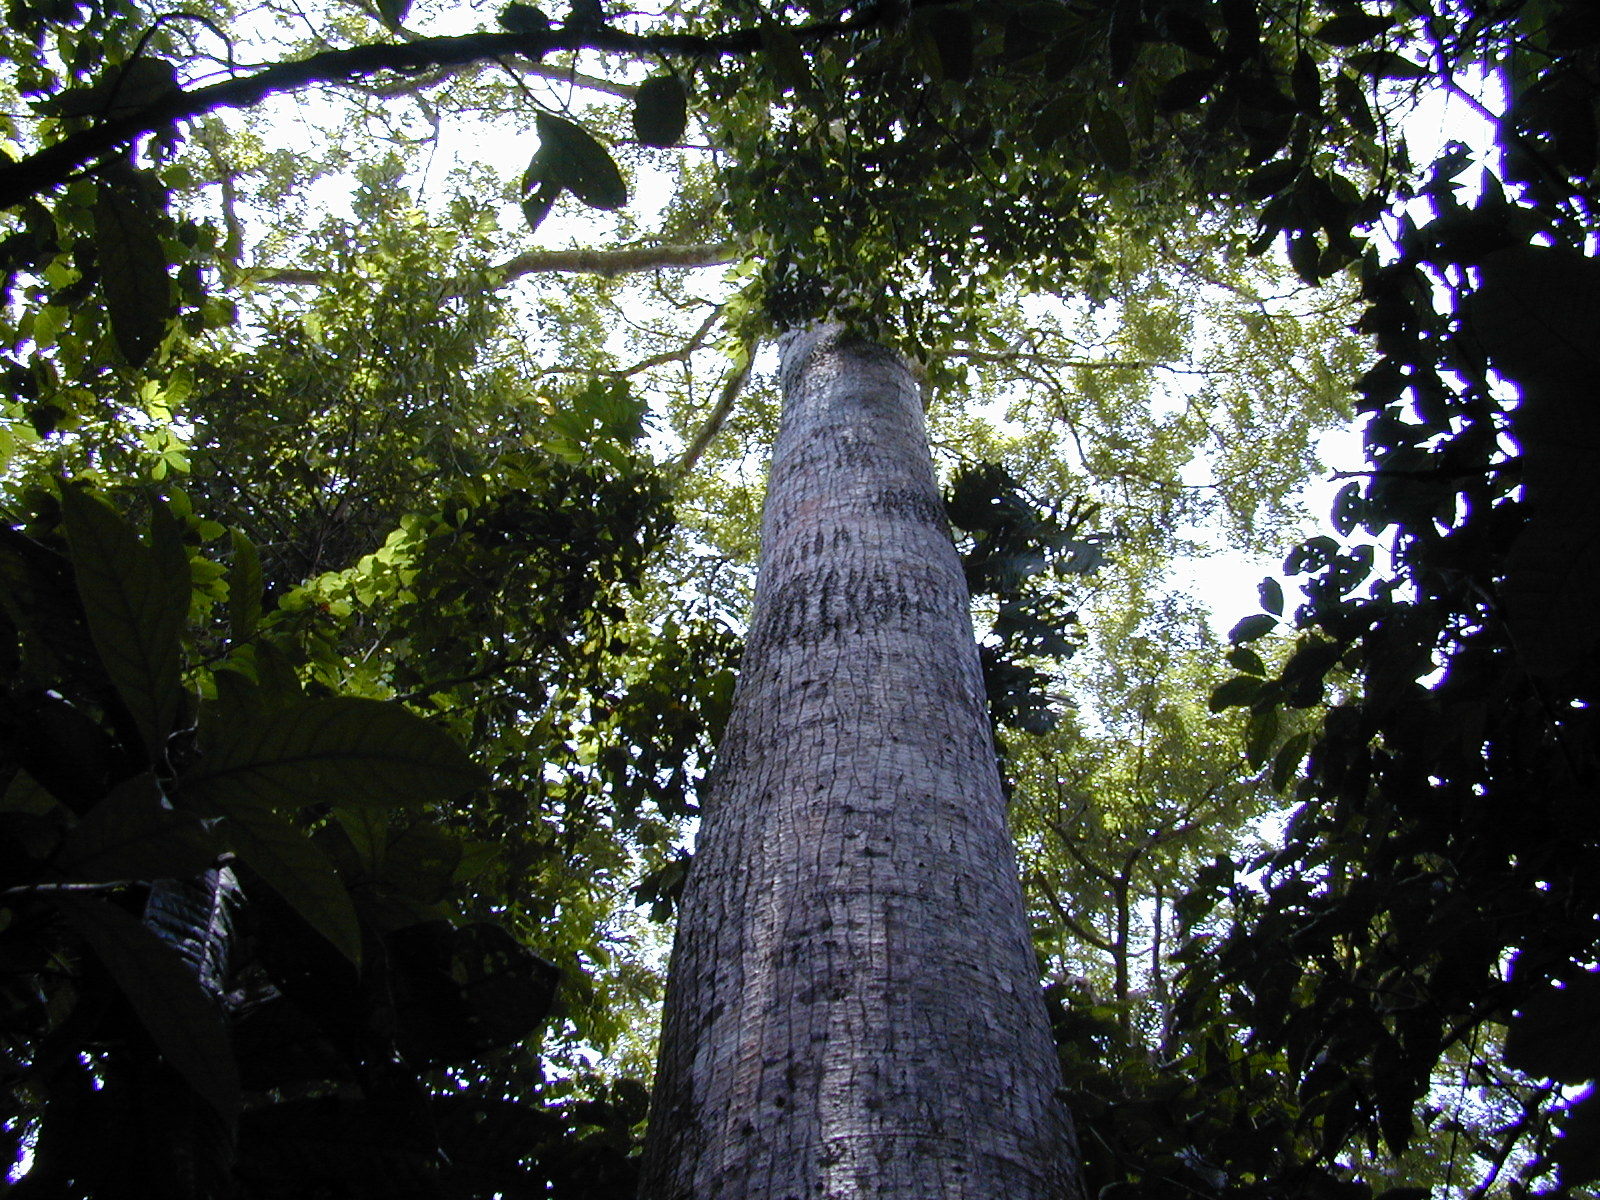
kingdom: Plantae
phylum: Tracheophyta
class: Magnoliopsida
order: Malvales
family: Malvaceae
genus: Ceiba
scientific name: Ceiba pentandra
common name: Kapok
